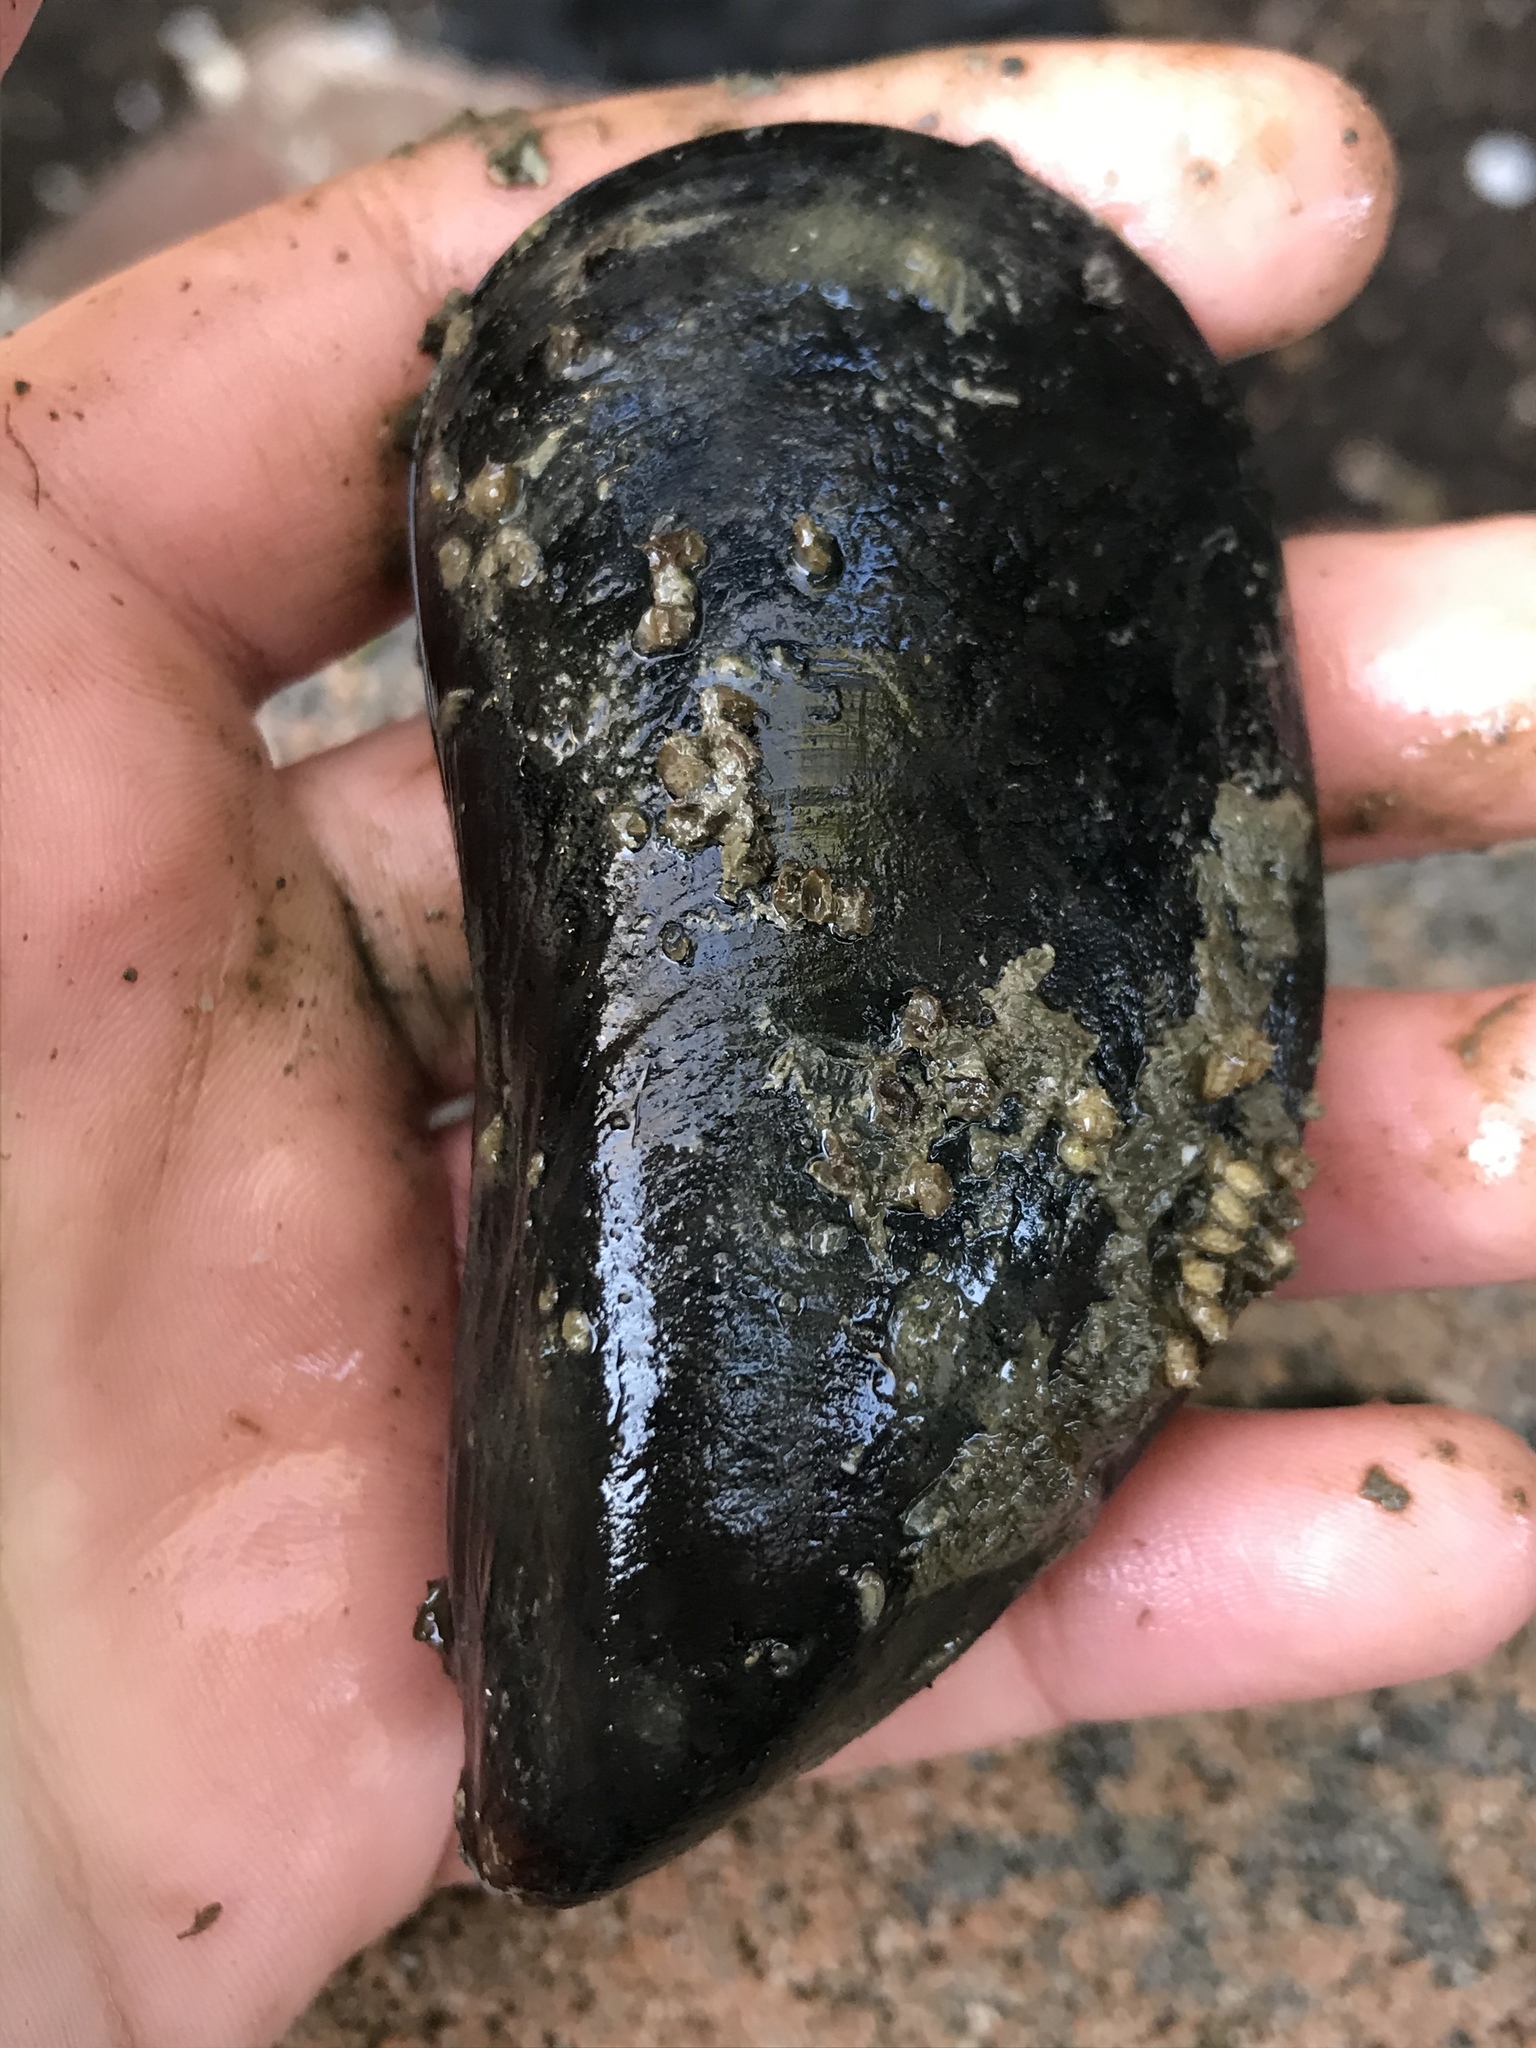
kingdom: Animalia
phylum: Mollusca
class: Bivalvia
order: Mytilida
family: Mytilidae
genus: Mytilus
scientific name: Mytilus
